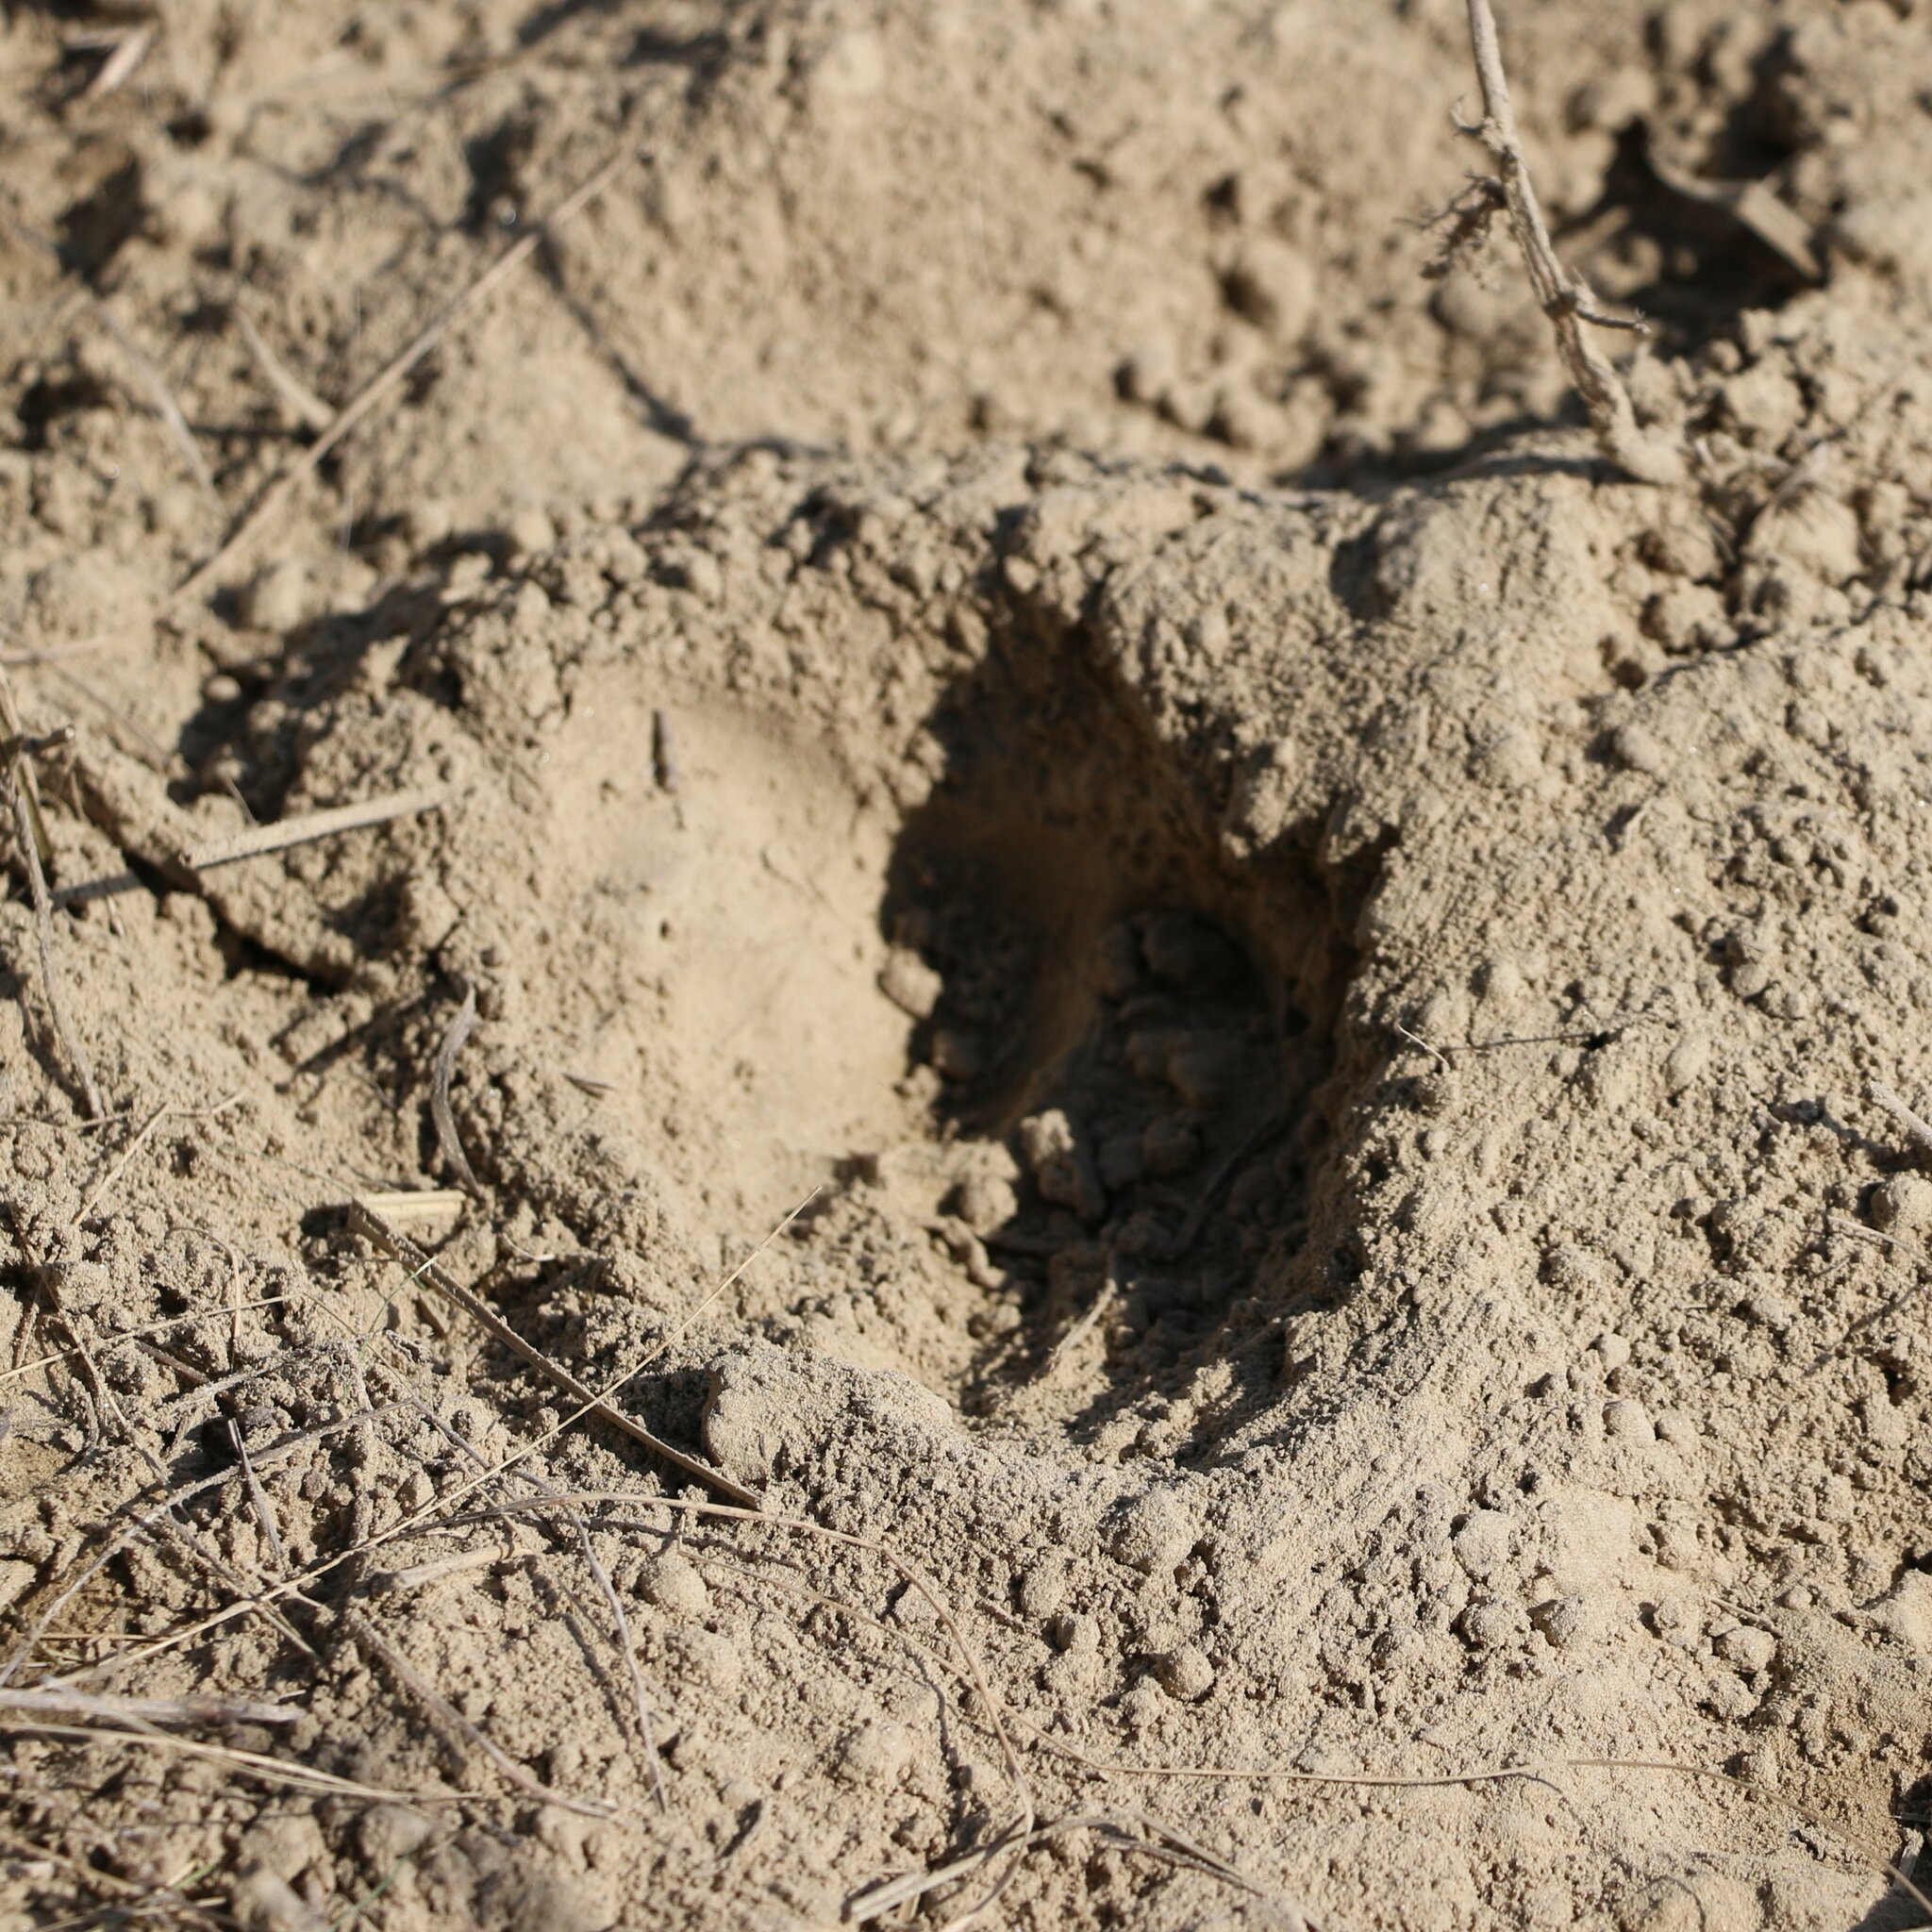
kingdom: Animalia
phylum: Chordata
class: Mammalia
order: Carnivora
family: Canidae
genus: Vulpes
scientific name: Vulpes vulpes
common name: Red fox
